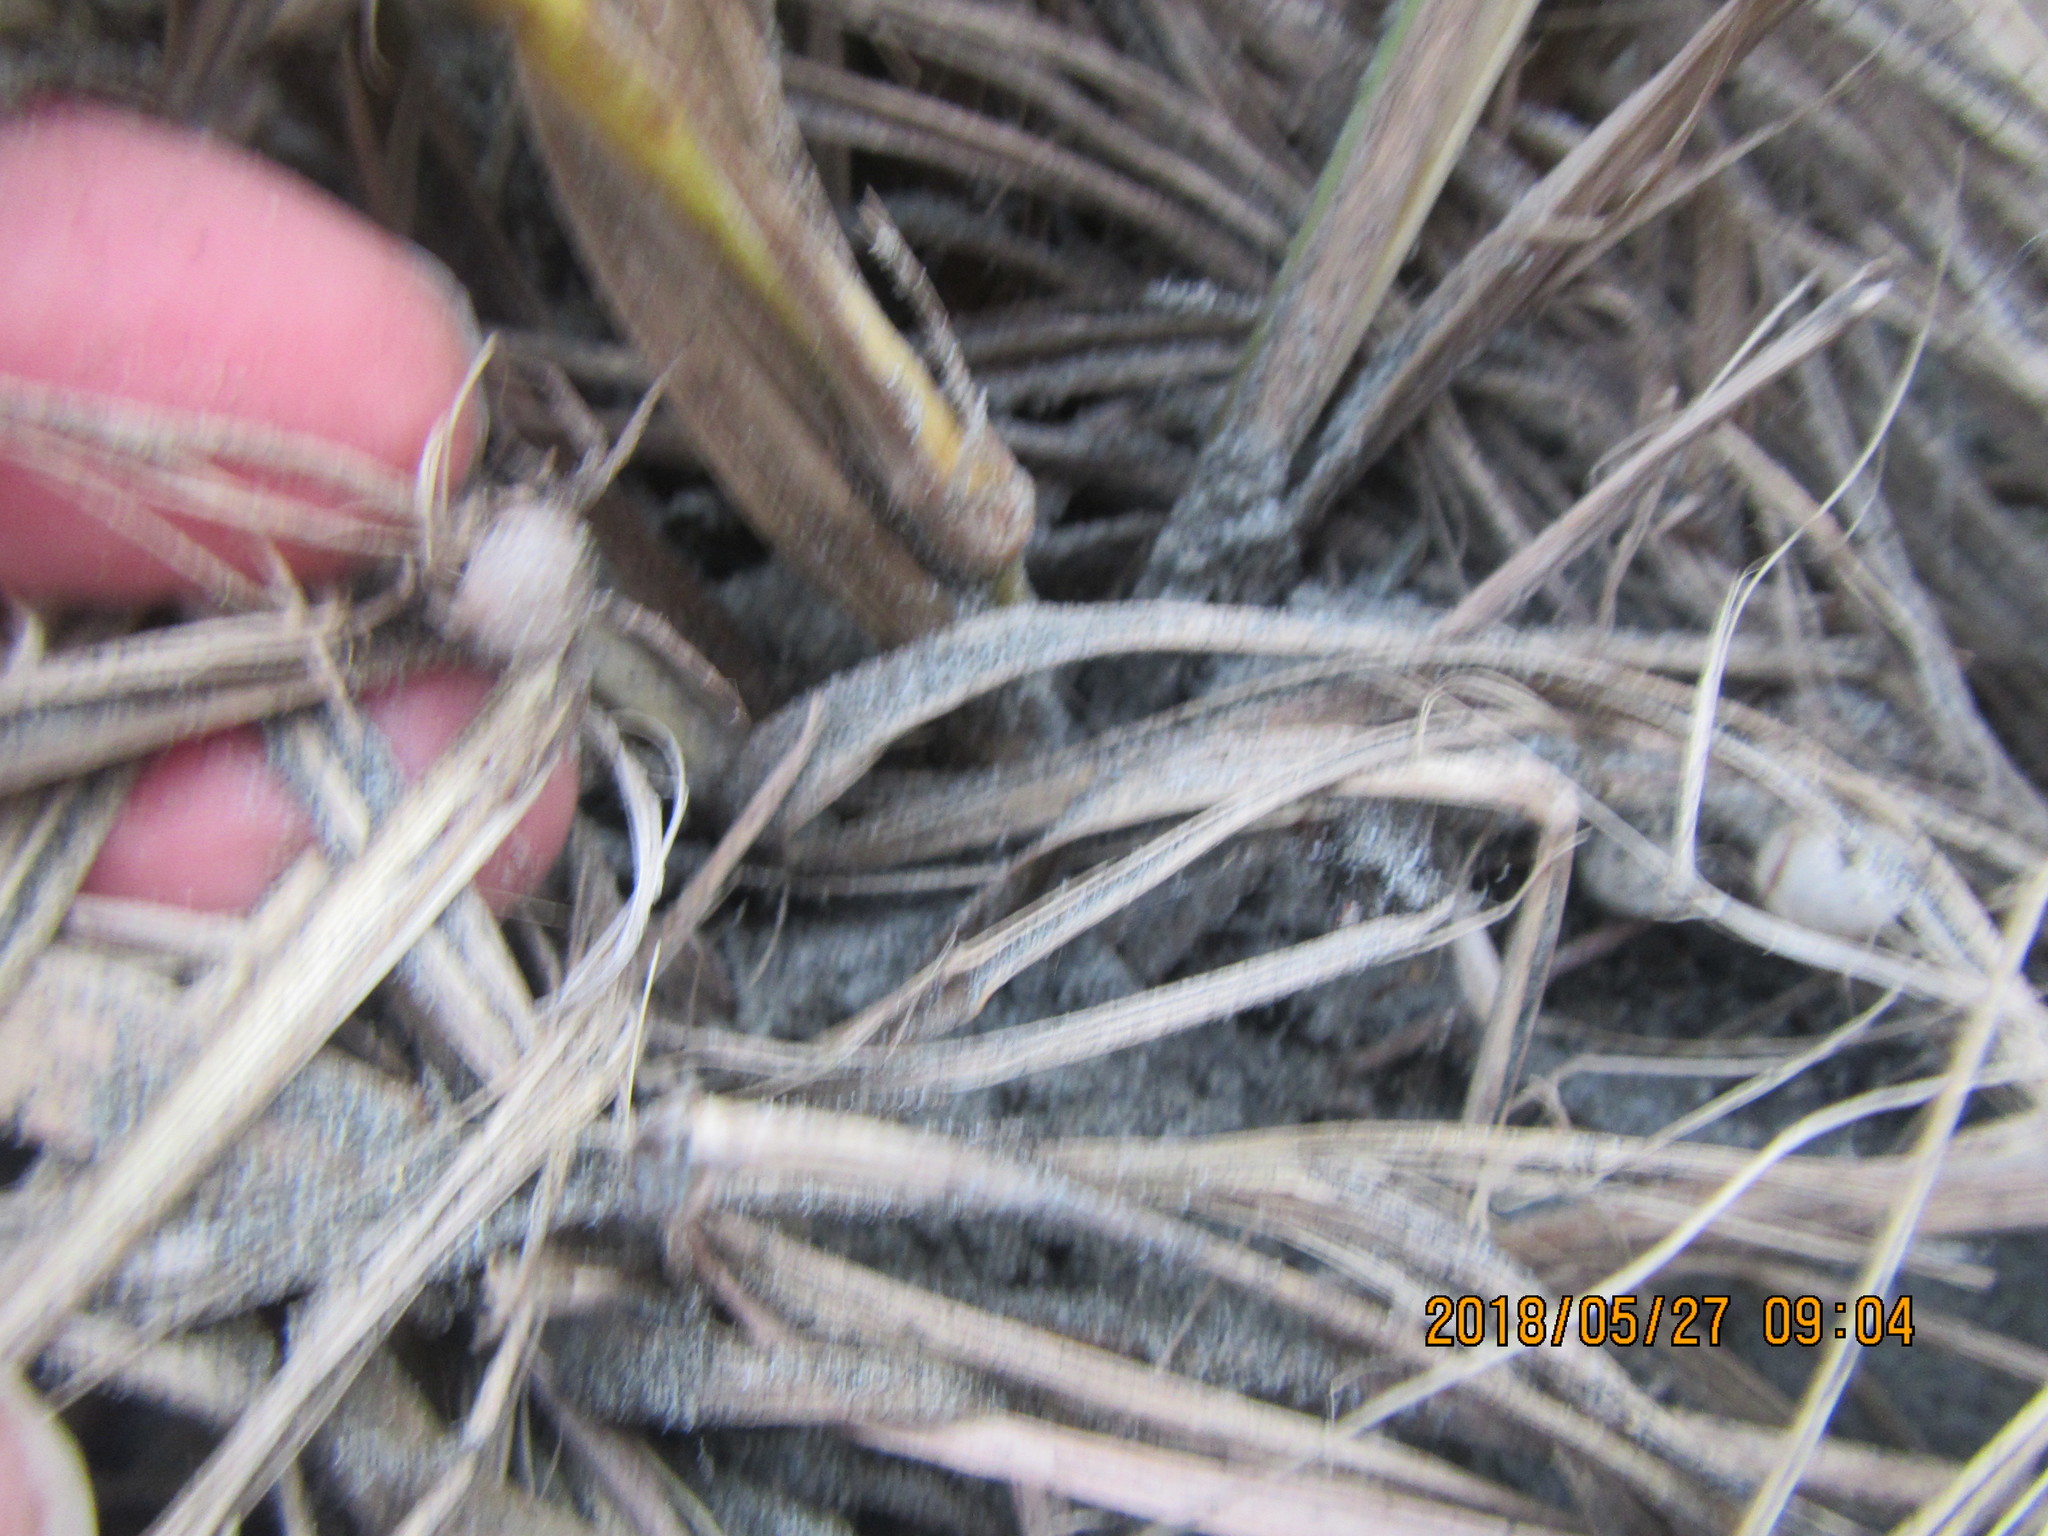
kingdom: Animalia
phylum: Arthropoda
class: Arachnida
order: Araneae
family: Thomisidae
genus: Sidymella
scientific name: Sidymella trapezia
